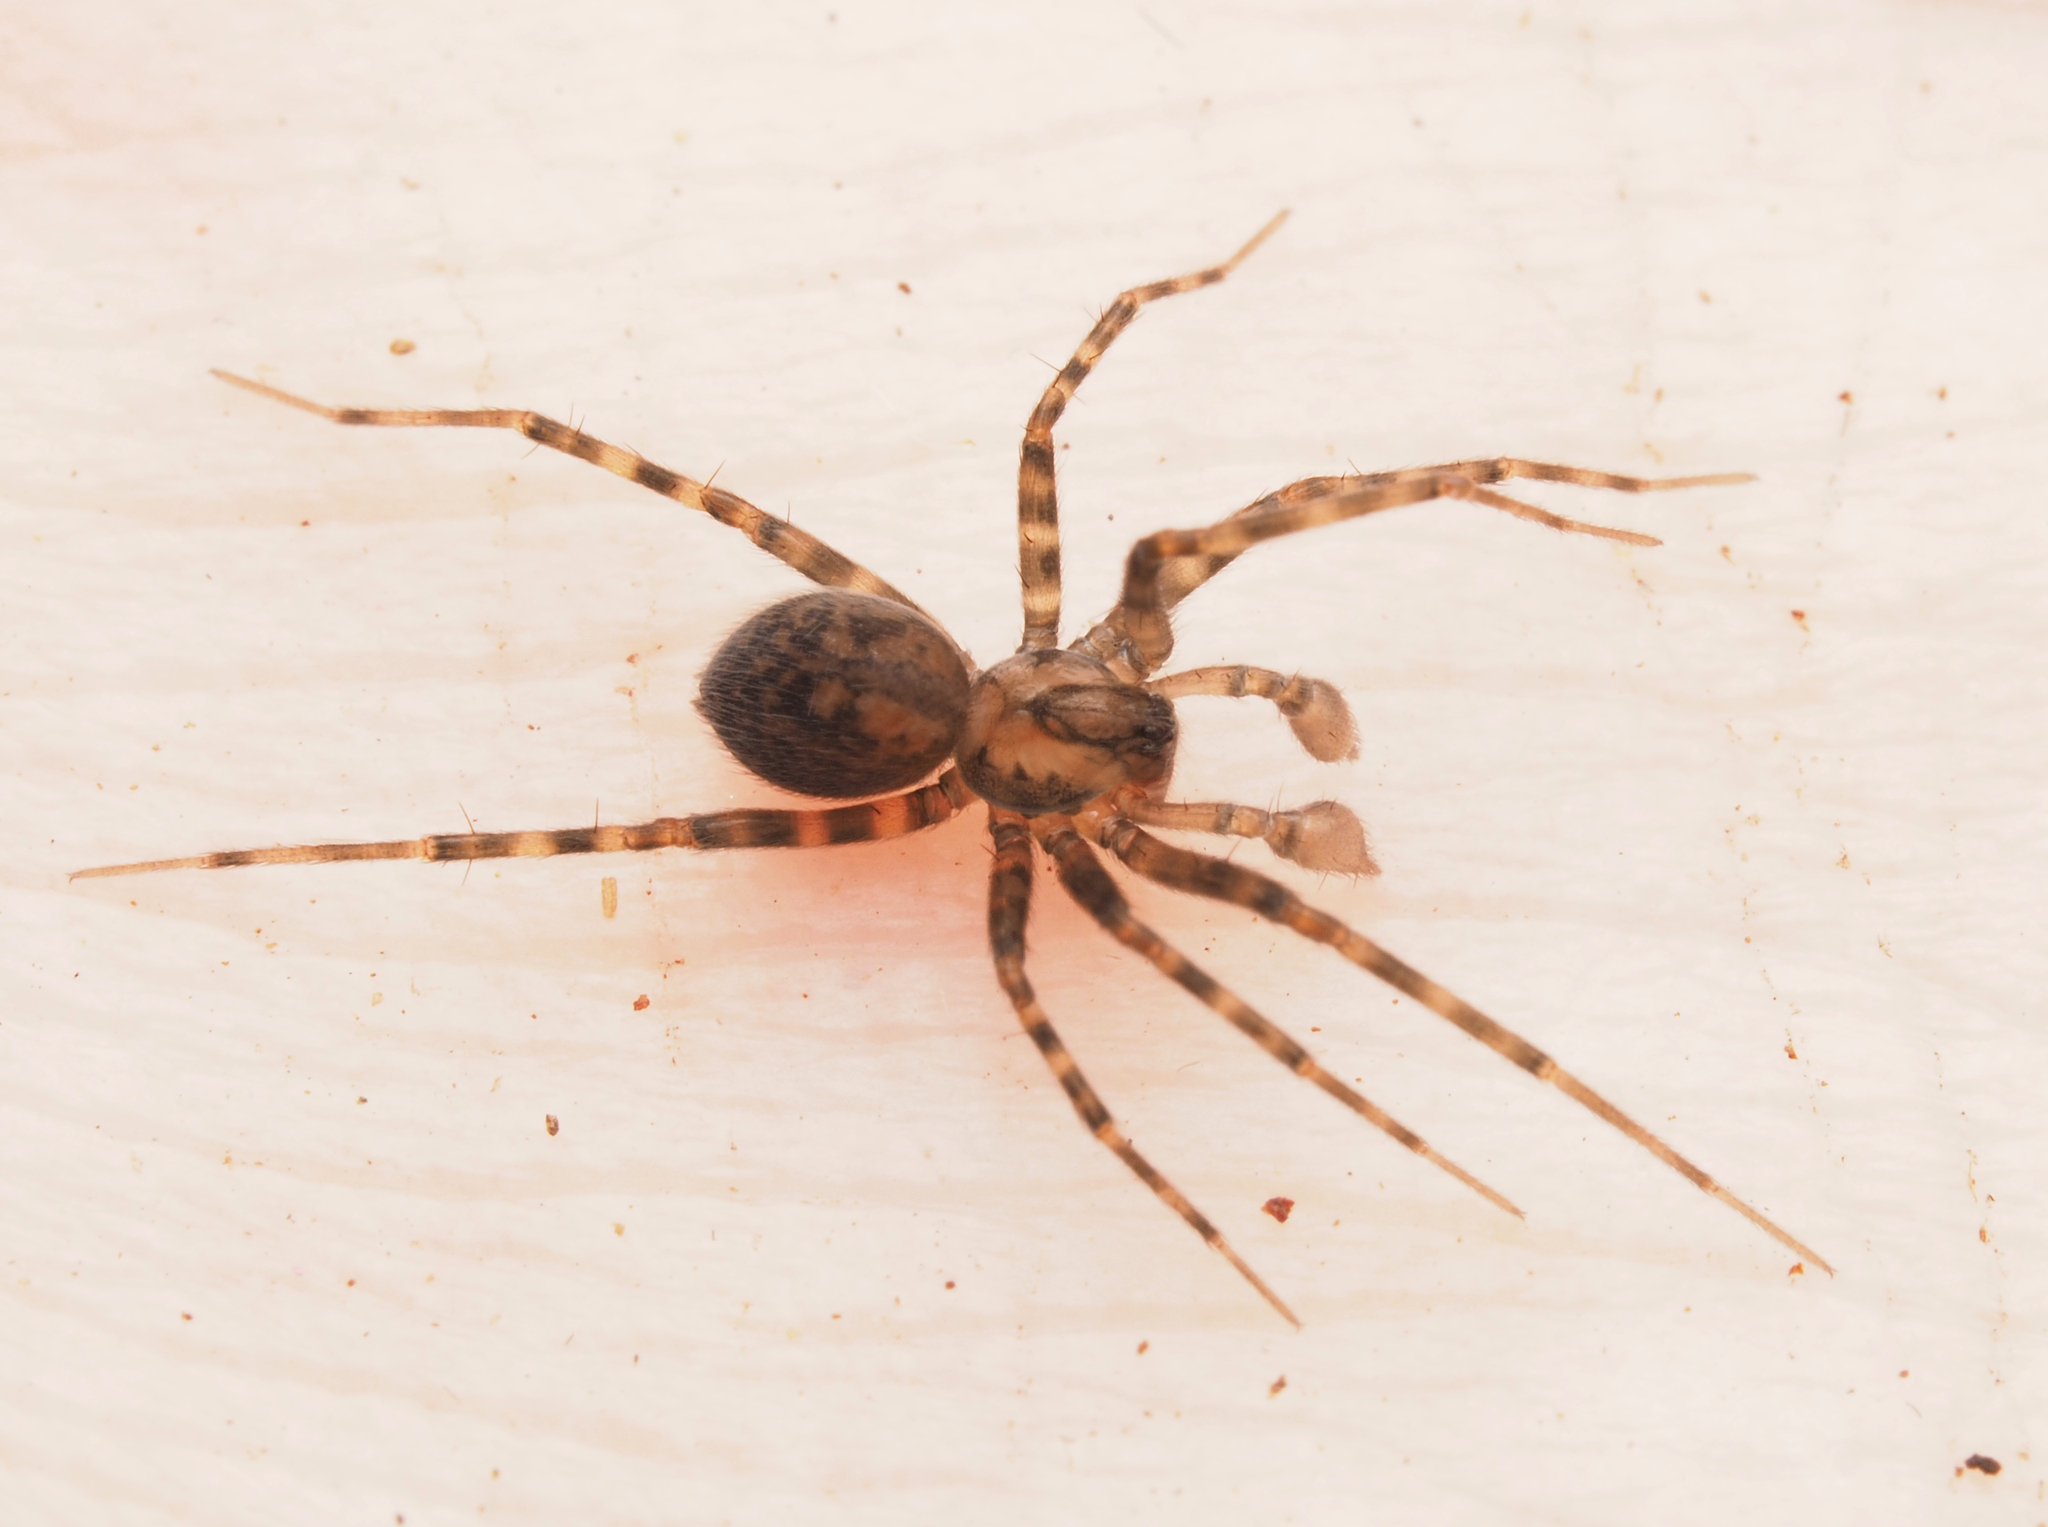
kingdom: Animalia
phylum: Arthropoda
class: Arachnida
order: Araneae
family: Stiphidiidae
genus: Procambridgea
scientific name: Procambridgea hilleri
